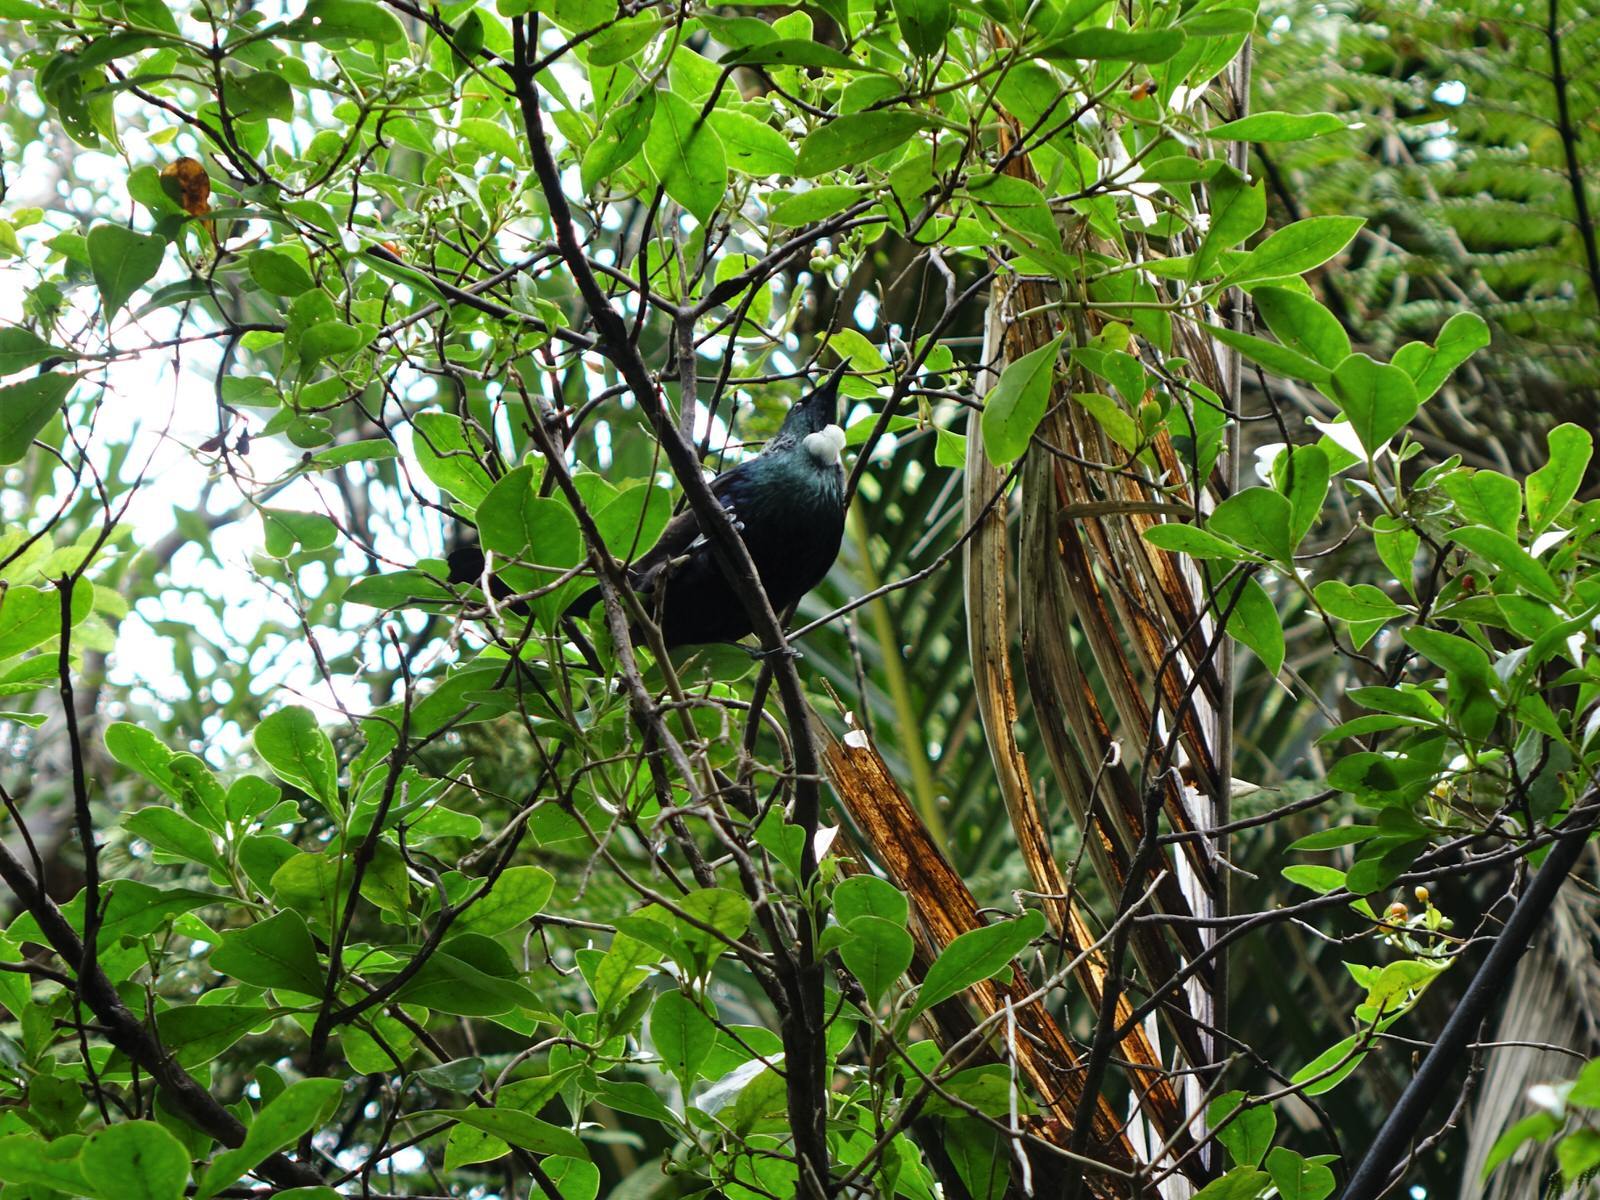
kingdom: Animalia
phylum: Chordata
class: Aves
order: Passeriformes
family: Meliphagidae
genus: Prosthemadera
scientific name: Prosthemadera novaeseelandiae
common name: Tui
